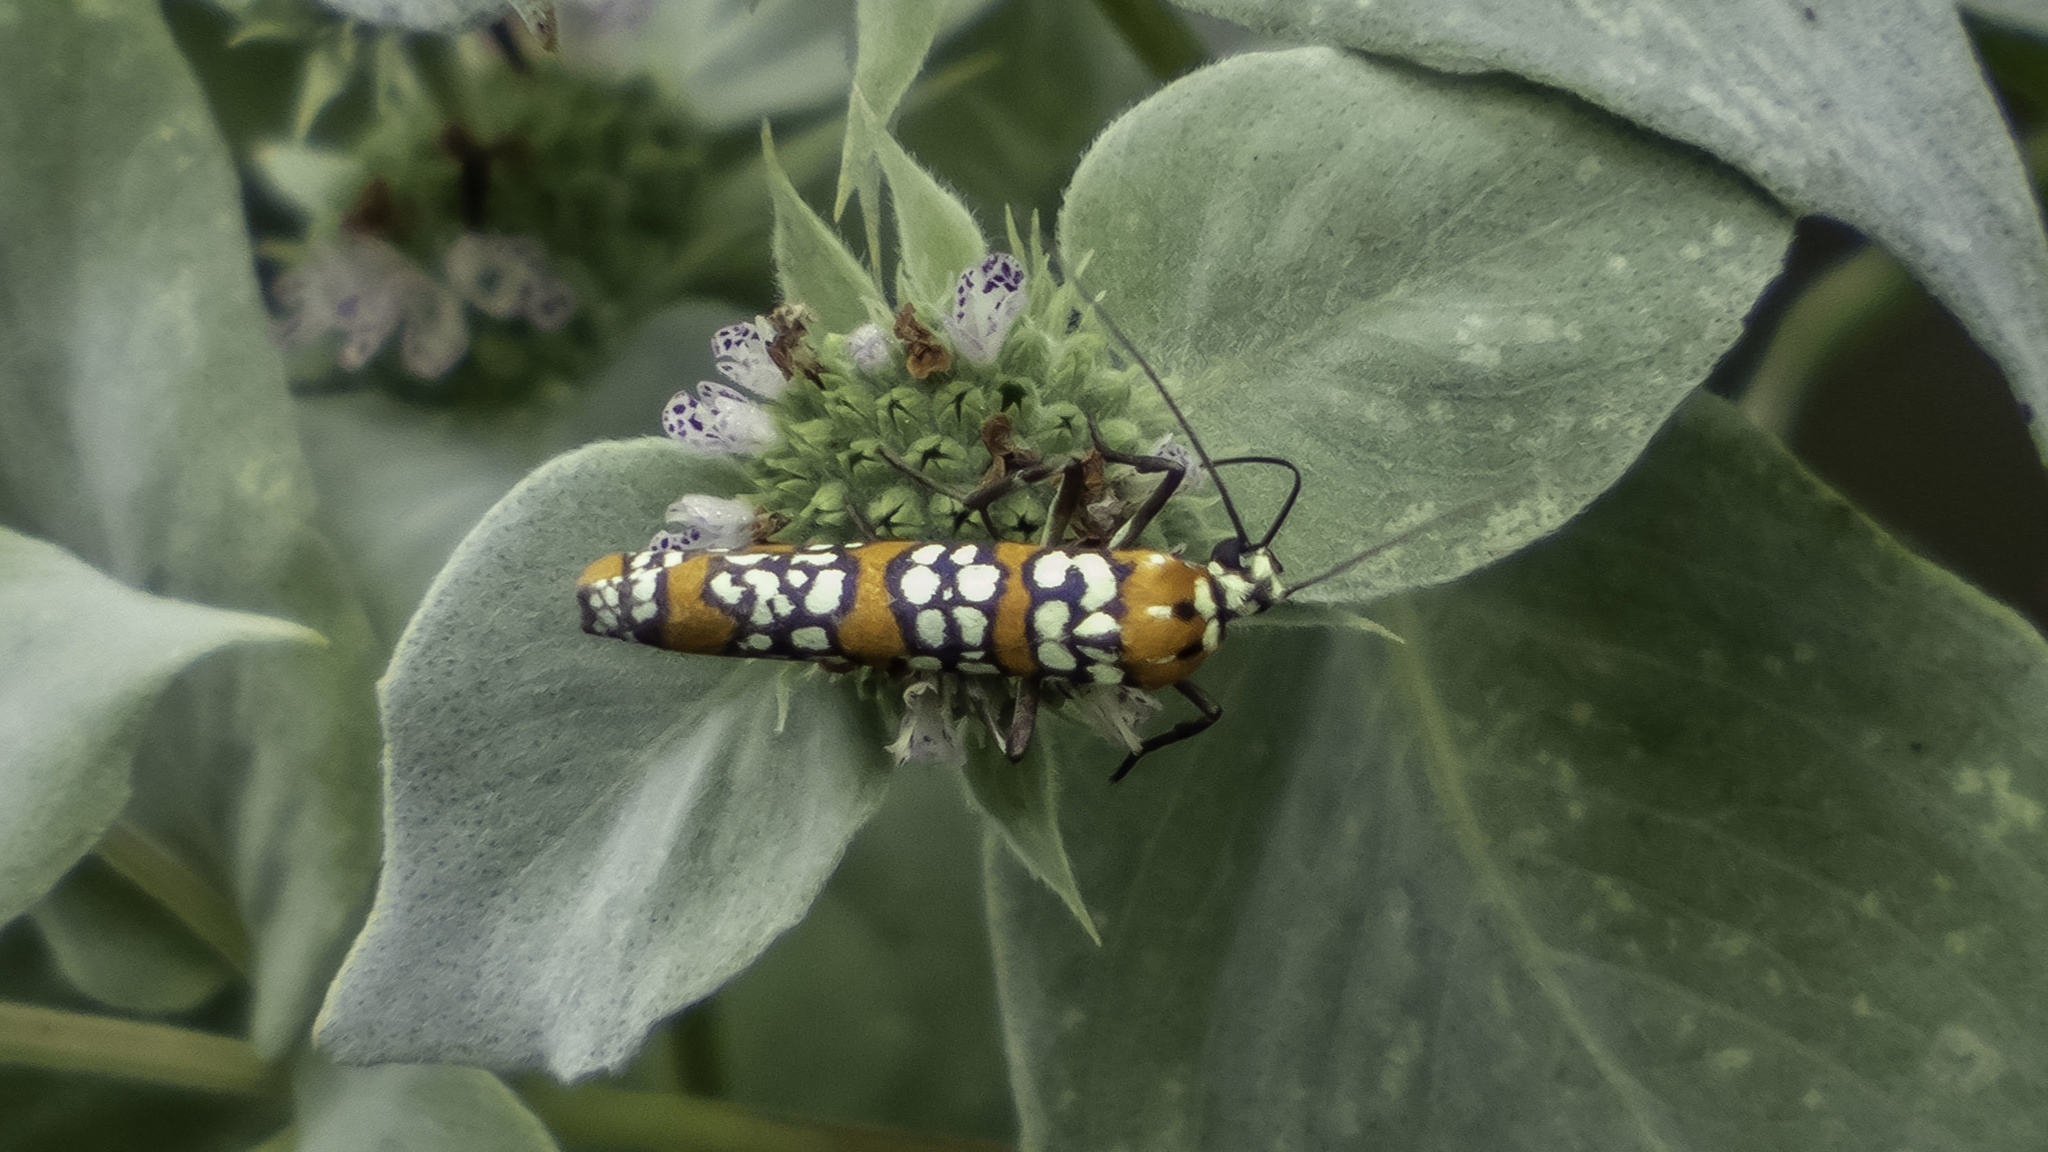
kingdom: Animalia
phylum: Arthropoda
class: Insecta
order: Lepidoptera
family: Attevidae
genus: Atteva
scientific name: Atteva punctella
